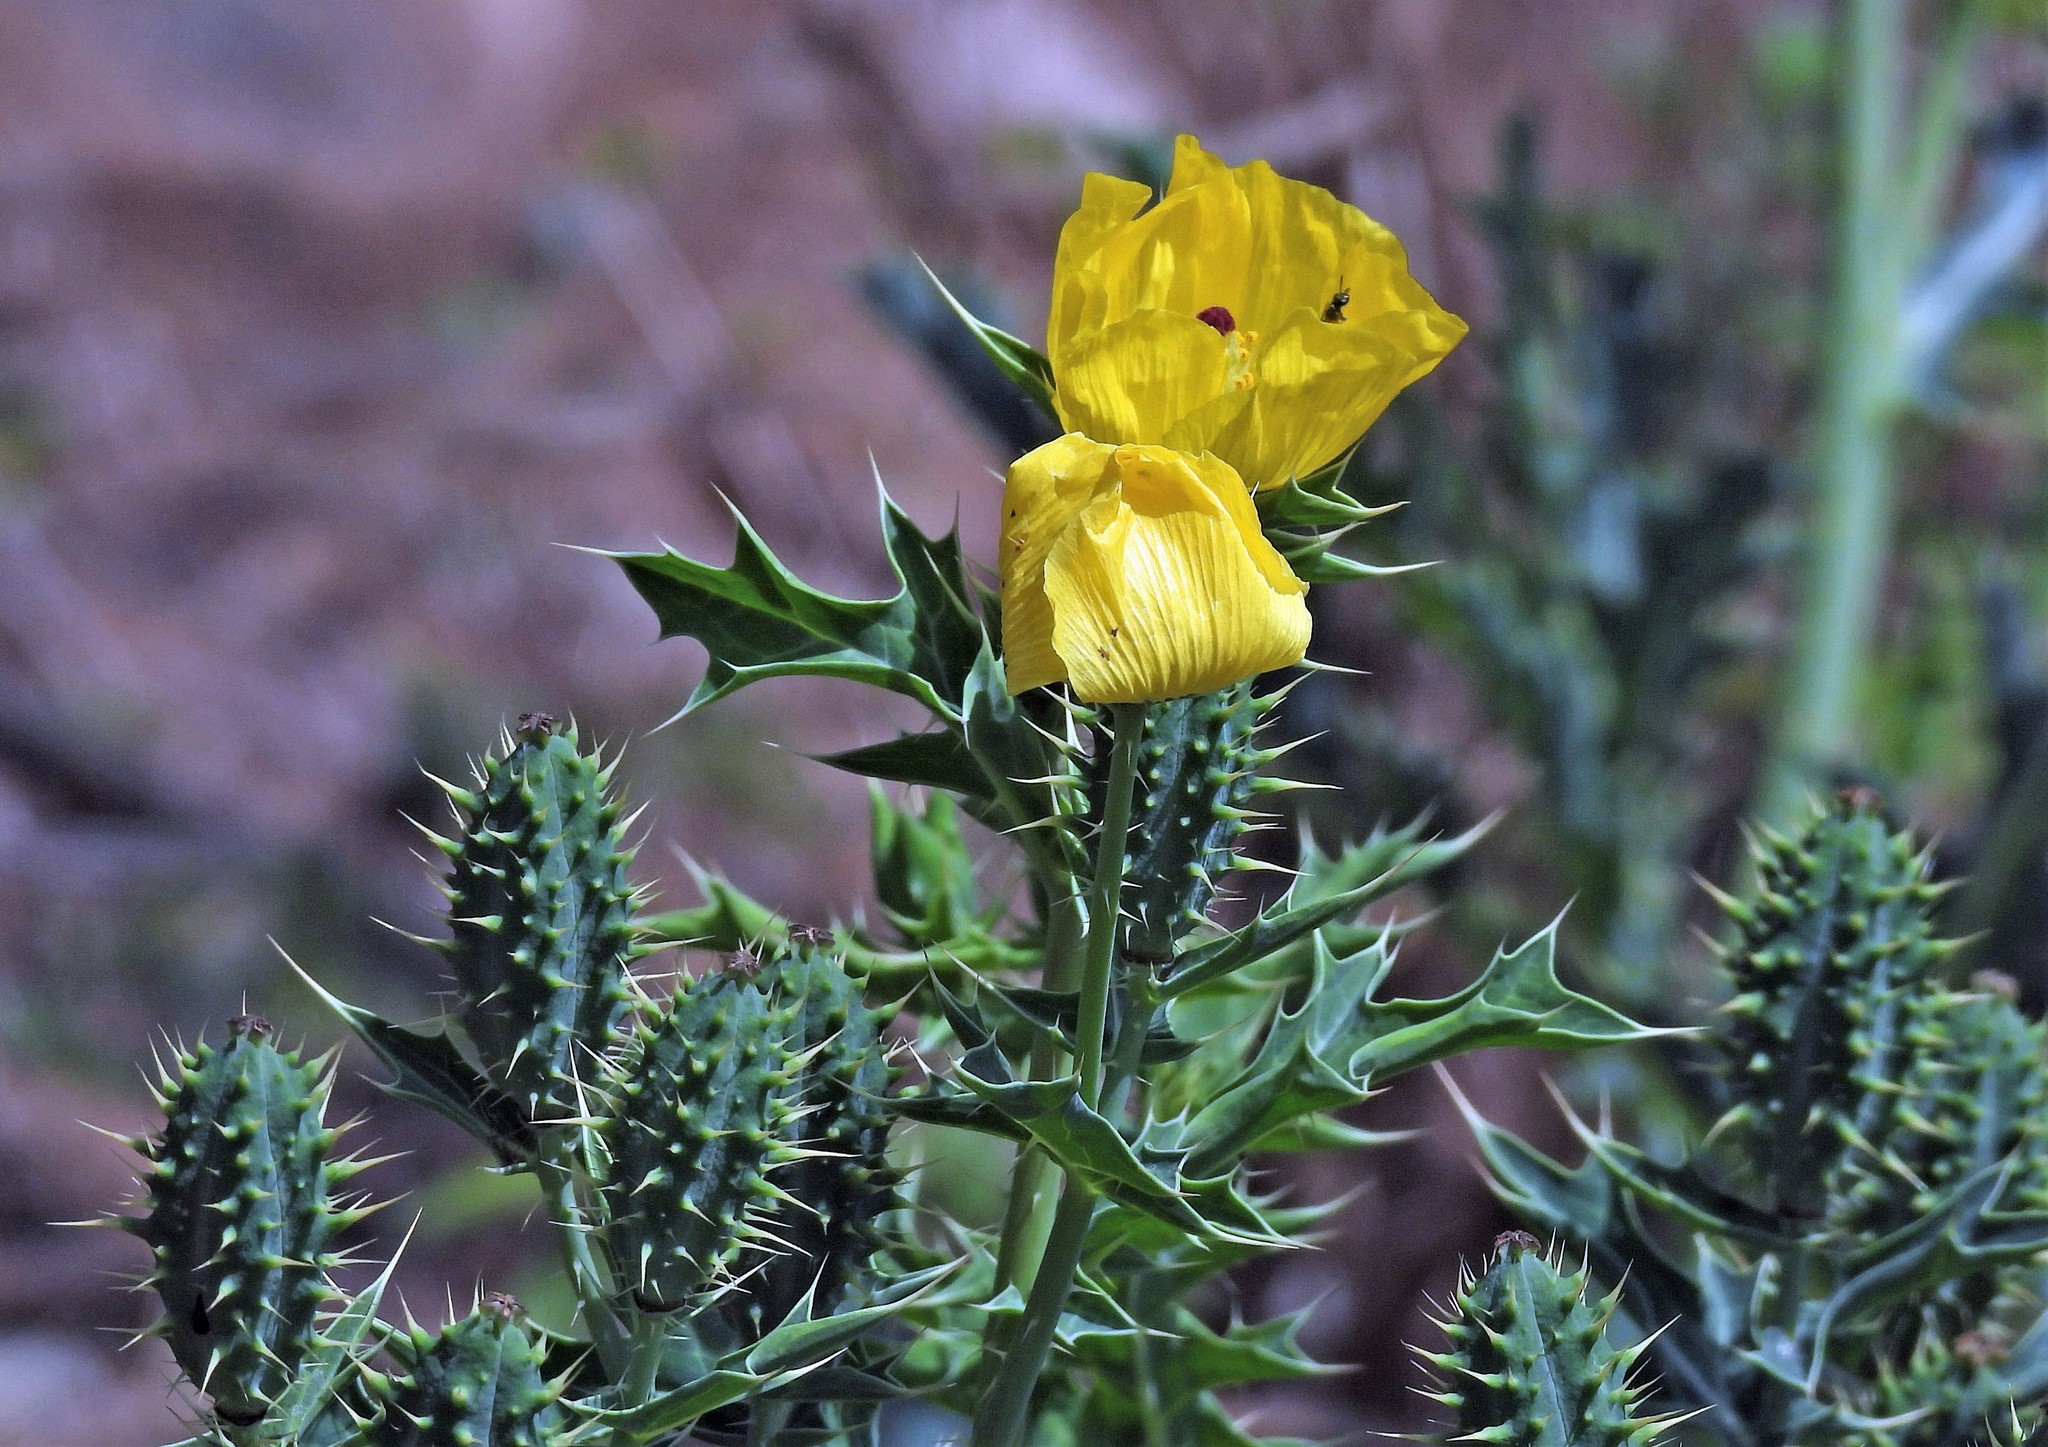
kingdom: Plantae
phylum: Tracheophyta
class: Magnoliopsida
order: Ranunculales
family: Papaveraceae
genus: Argemone
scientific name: Argemone subfusiformis
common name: American-poppy
